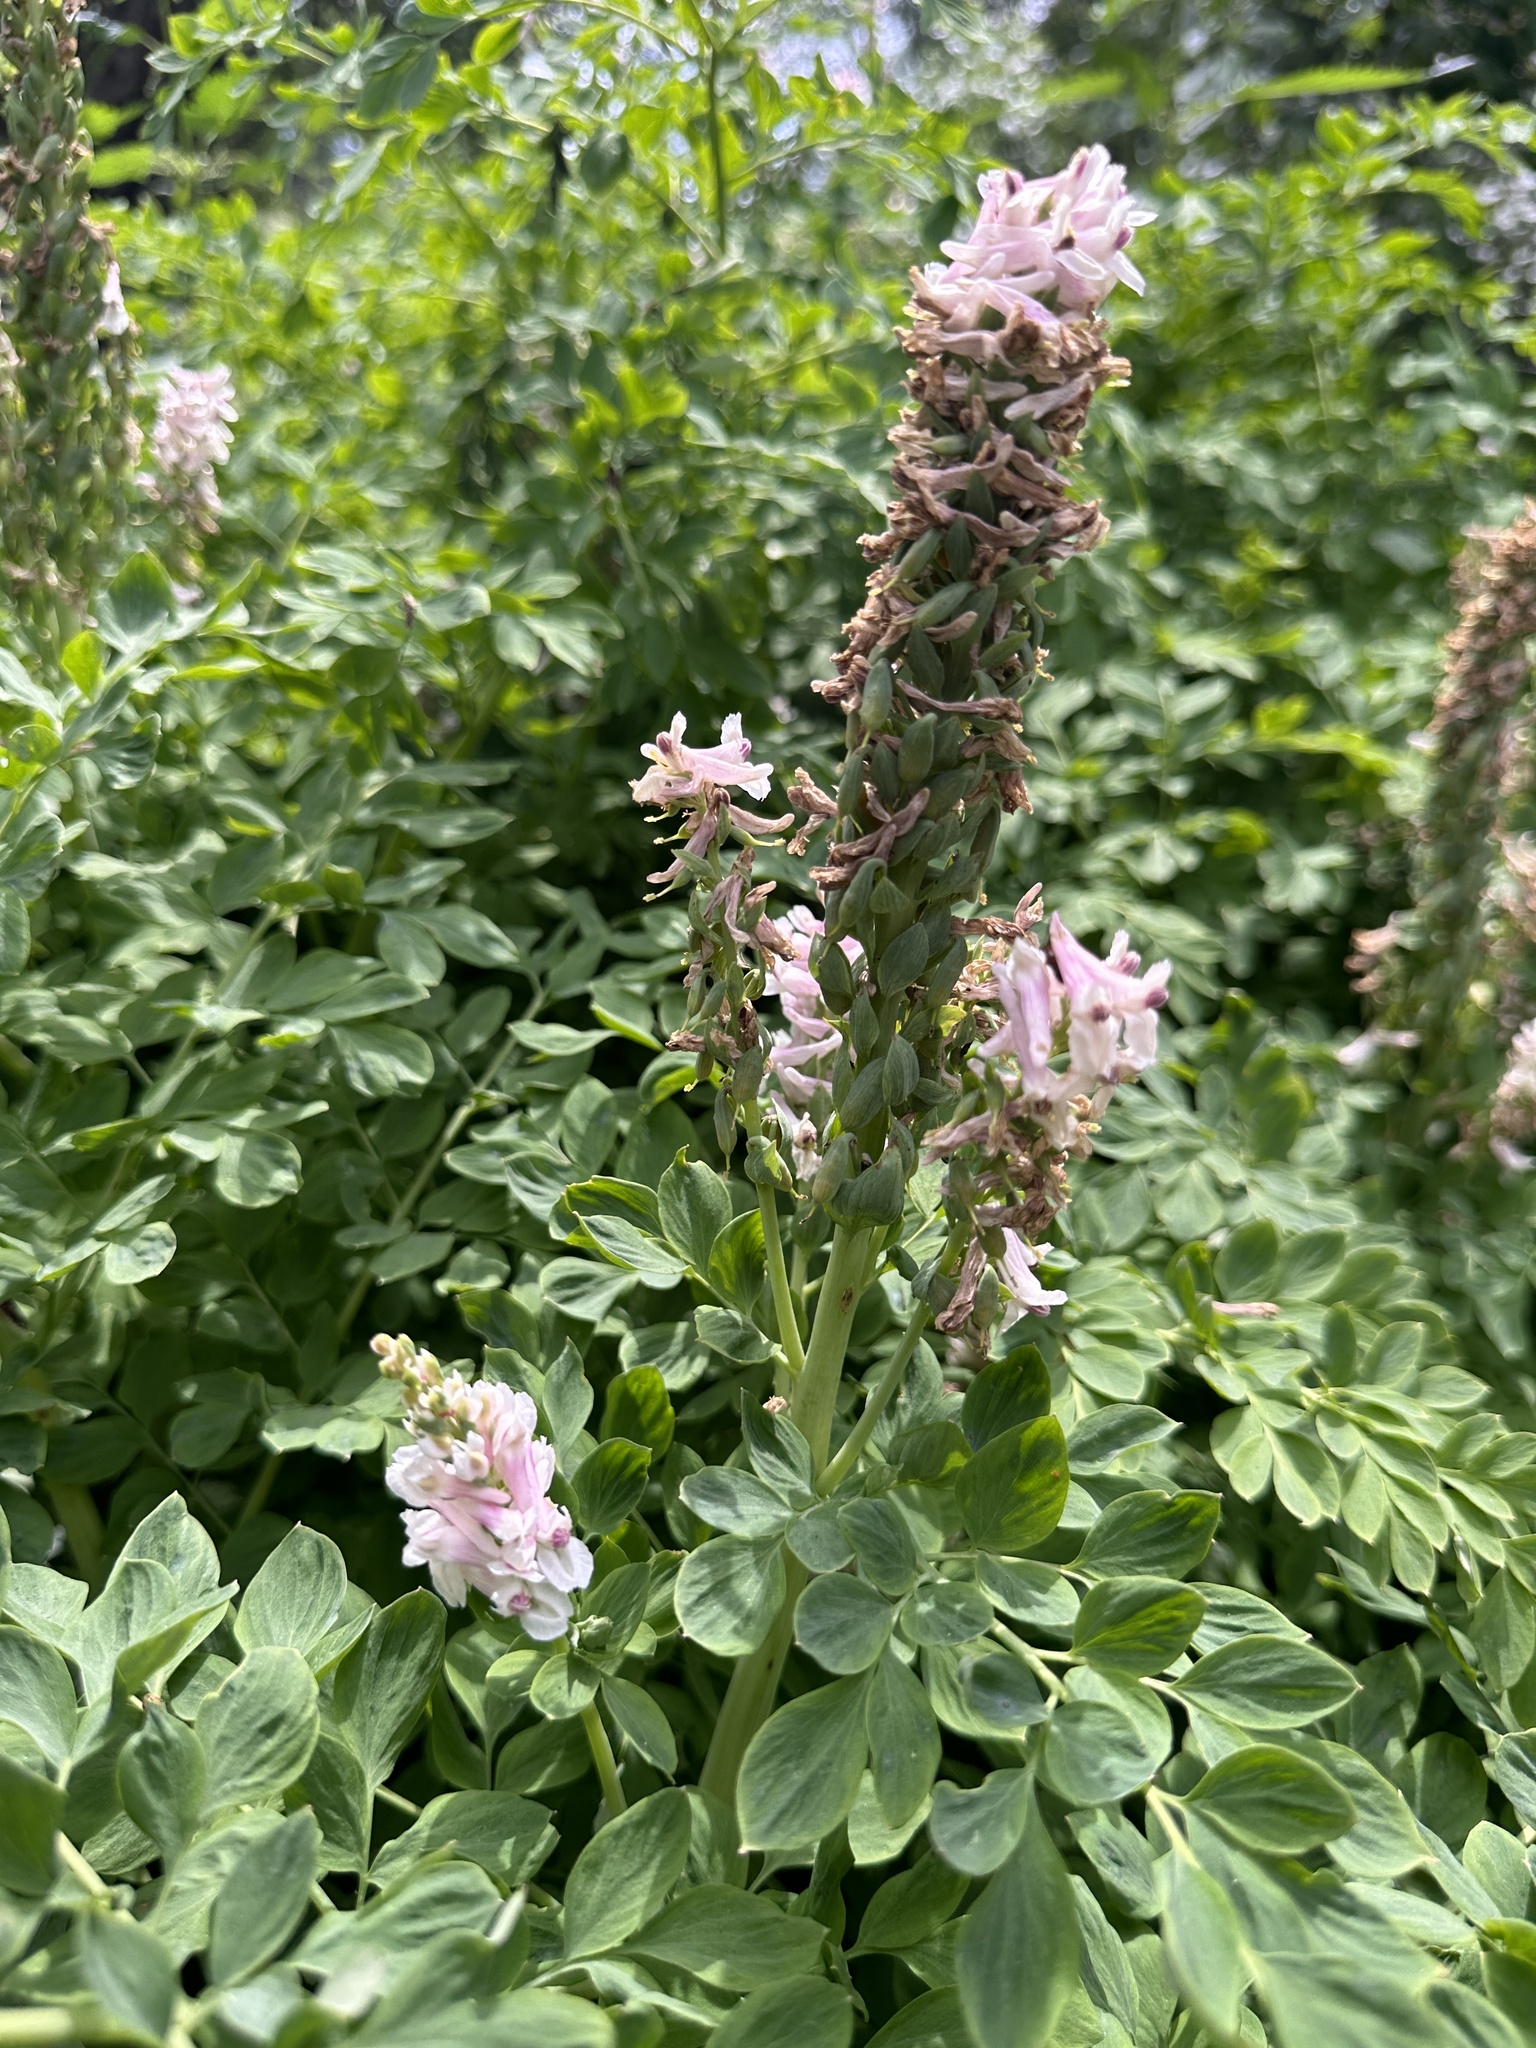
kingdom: Plantae
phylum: Tracheophyta
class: Magnoliopsida
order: Ranunculales
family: Papaveraceae
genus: Corydalis
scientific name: Corydalis caseana
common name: Fitweed
